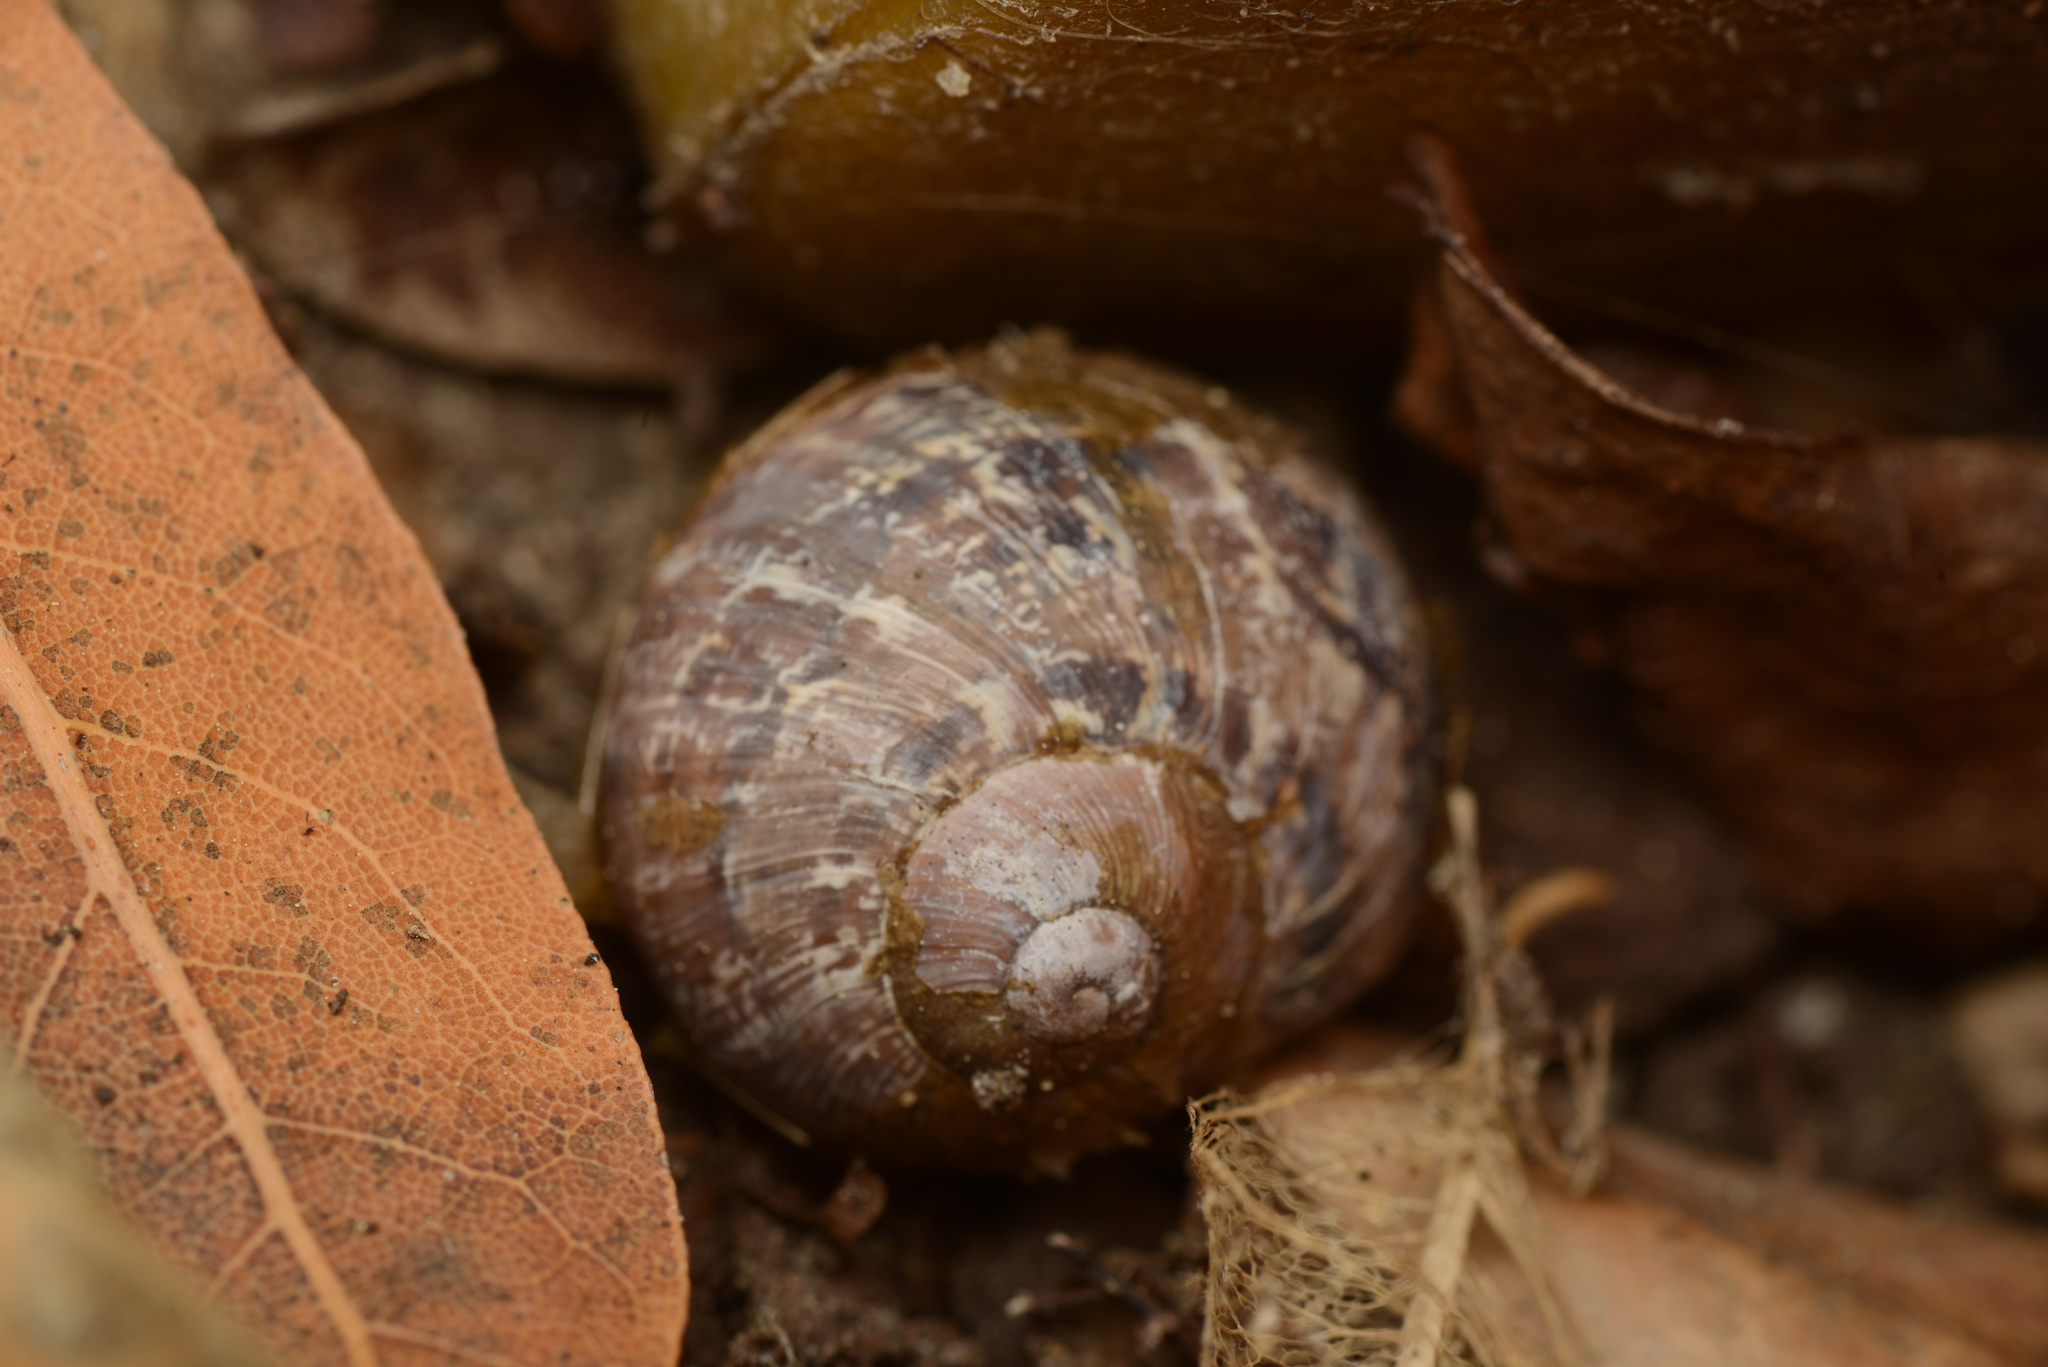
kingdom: Animalia
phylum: Mollusca
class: Gastropoda
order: Stylommatophora
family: Helicidae
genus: Cornu
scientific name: Cornu aspersum
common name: Brown garden snail
